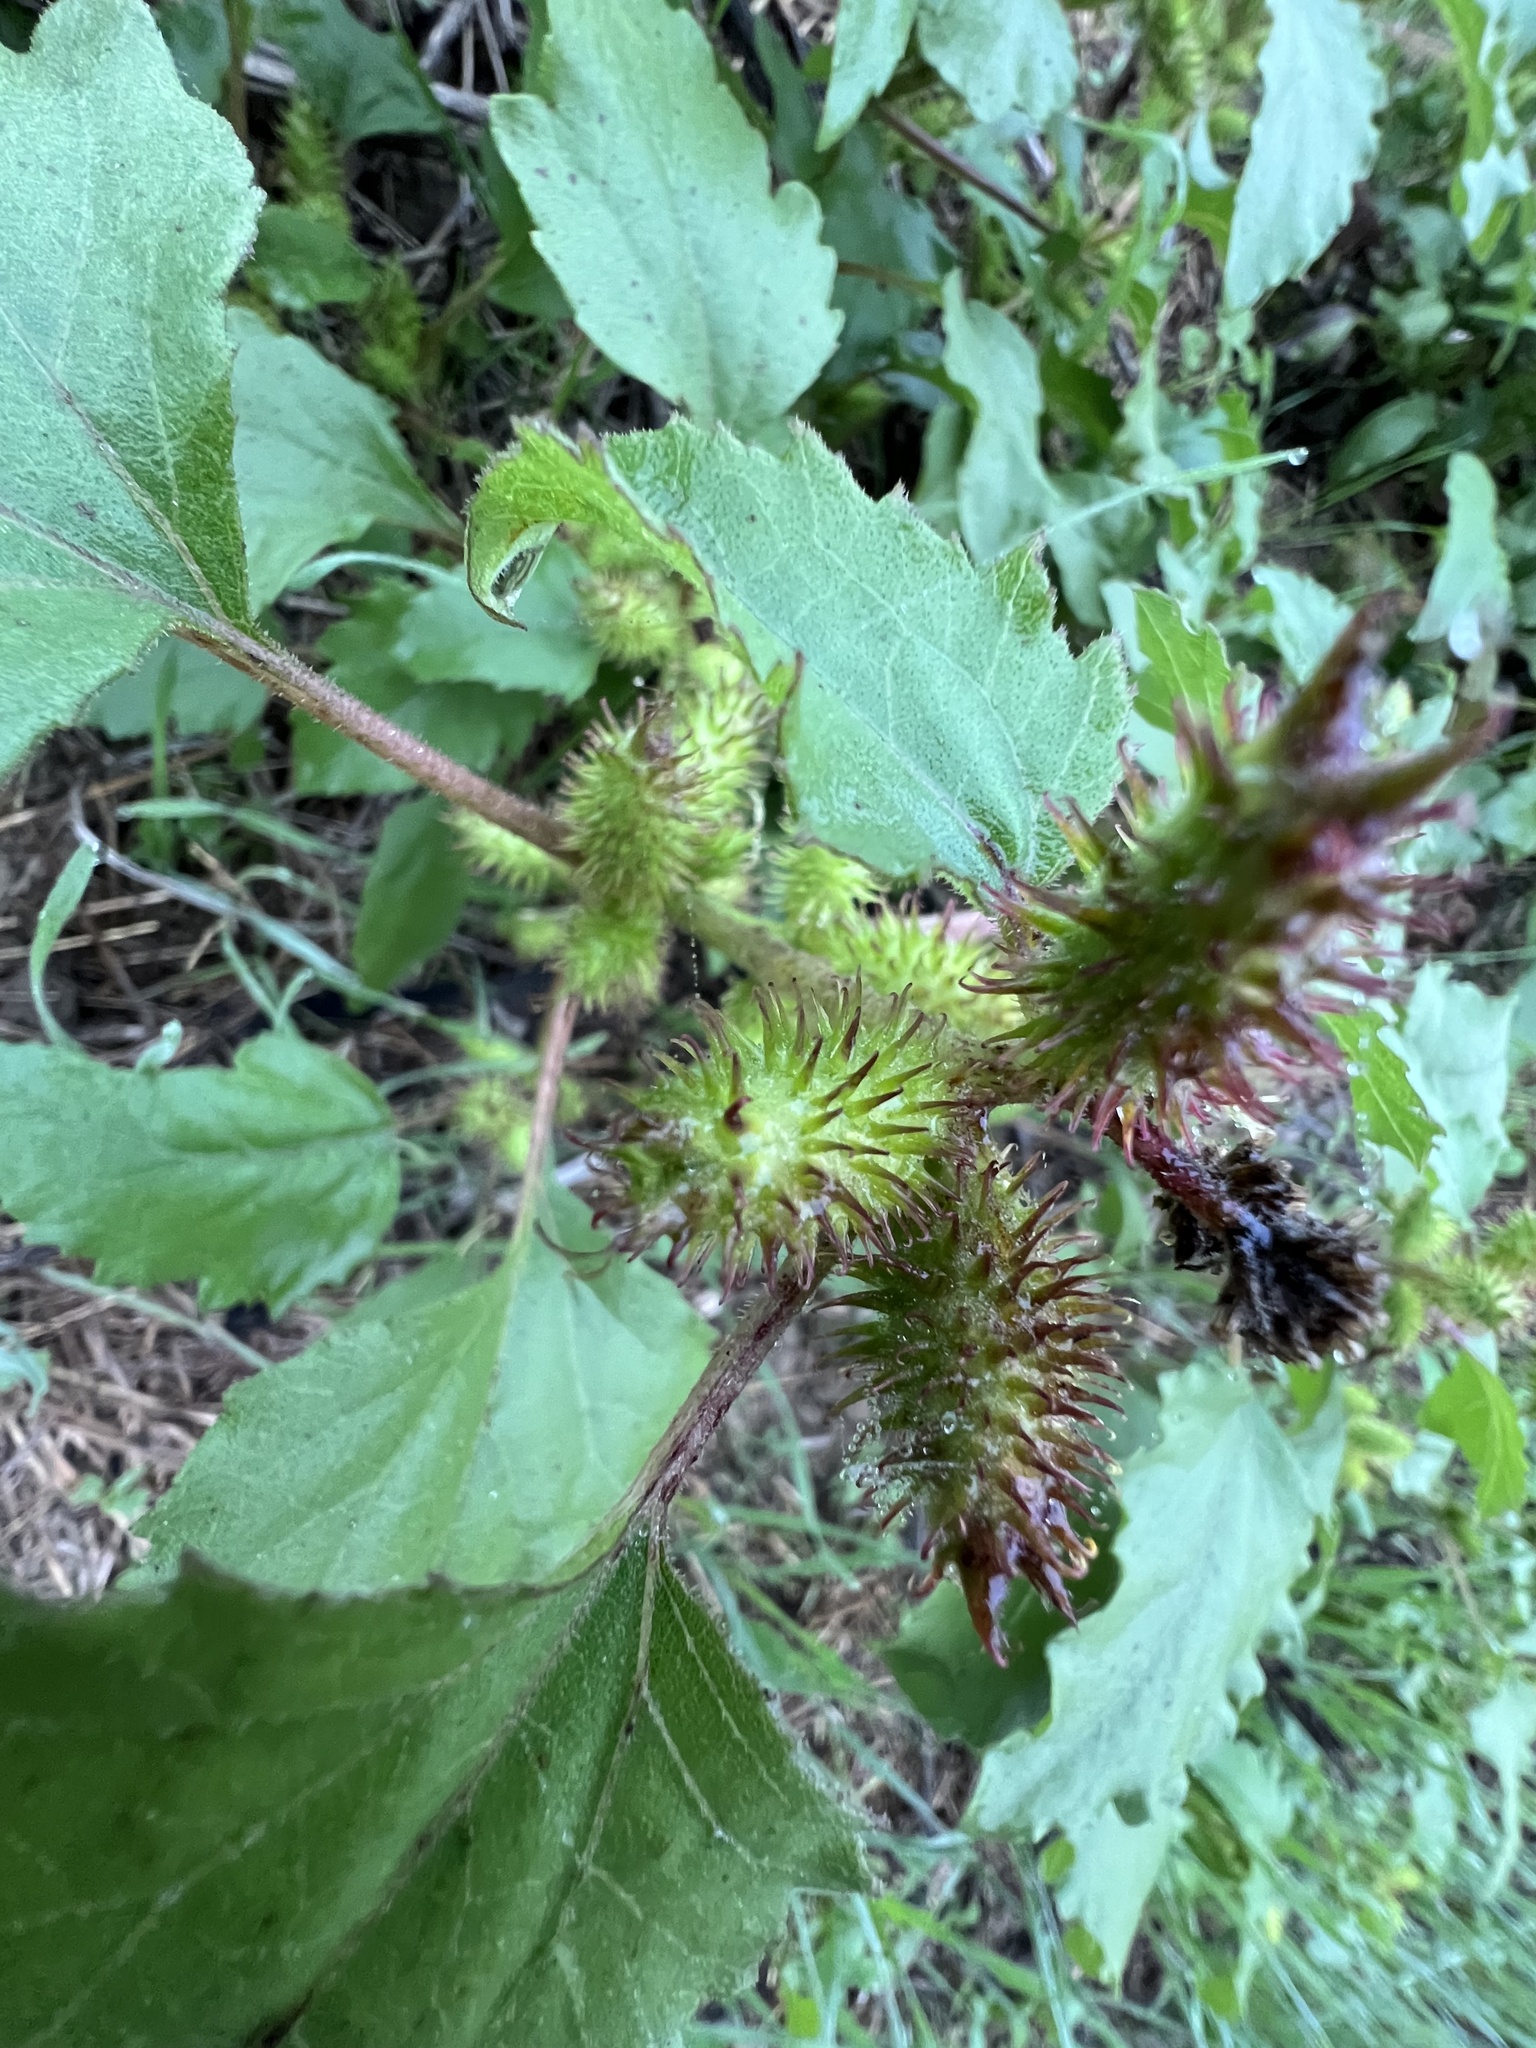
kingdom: Plantae
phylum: Tracheophyta
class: Magnoliopsida
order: Asterales
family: Asteraceae
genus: Xanthium
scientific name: Xanthium strumarium
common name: Rough cocklebur
